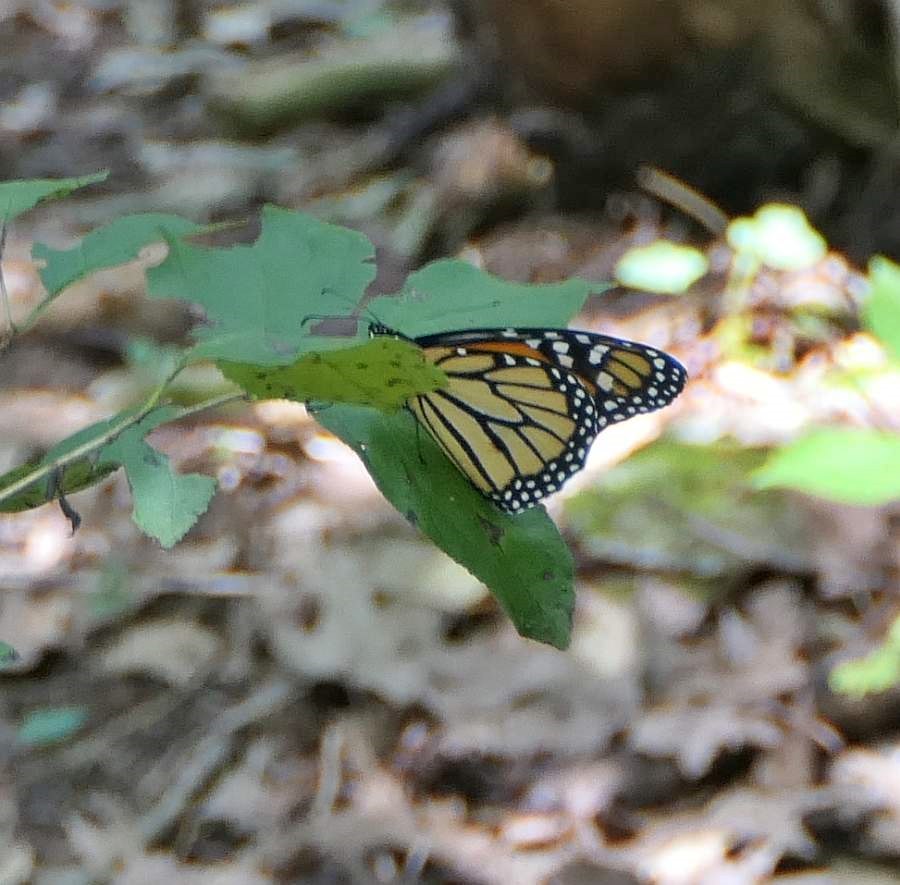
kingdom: Animalia
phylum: Arthropoda
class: Insecta
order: Lepidoptera
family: Nymphalidae
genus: Danaus
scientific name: Danaus plexippus
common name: Monarch
